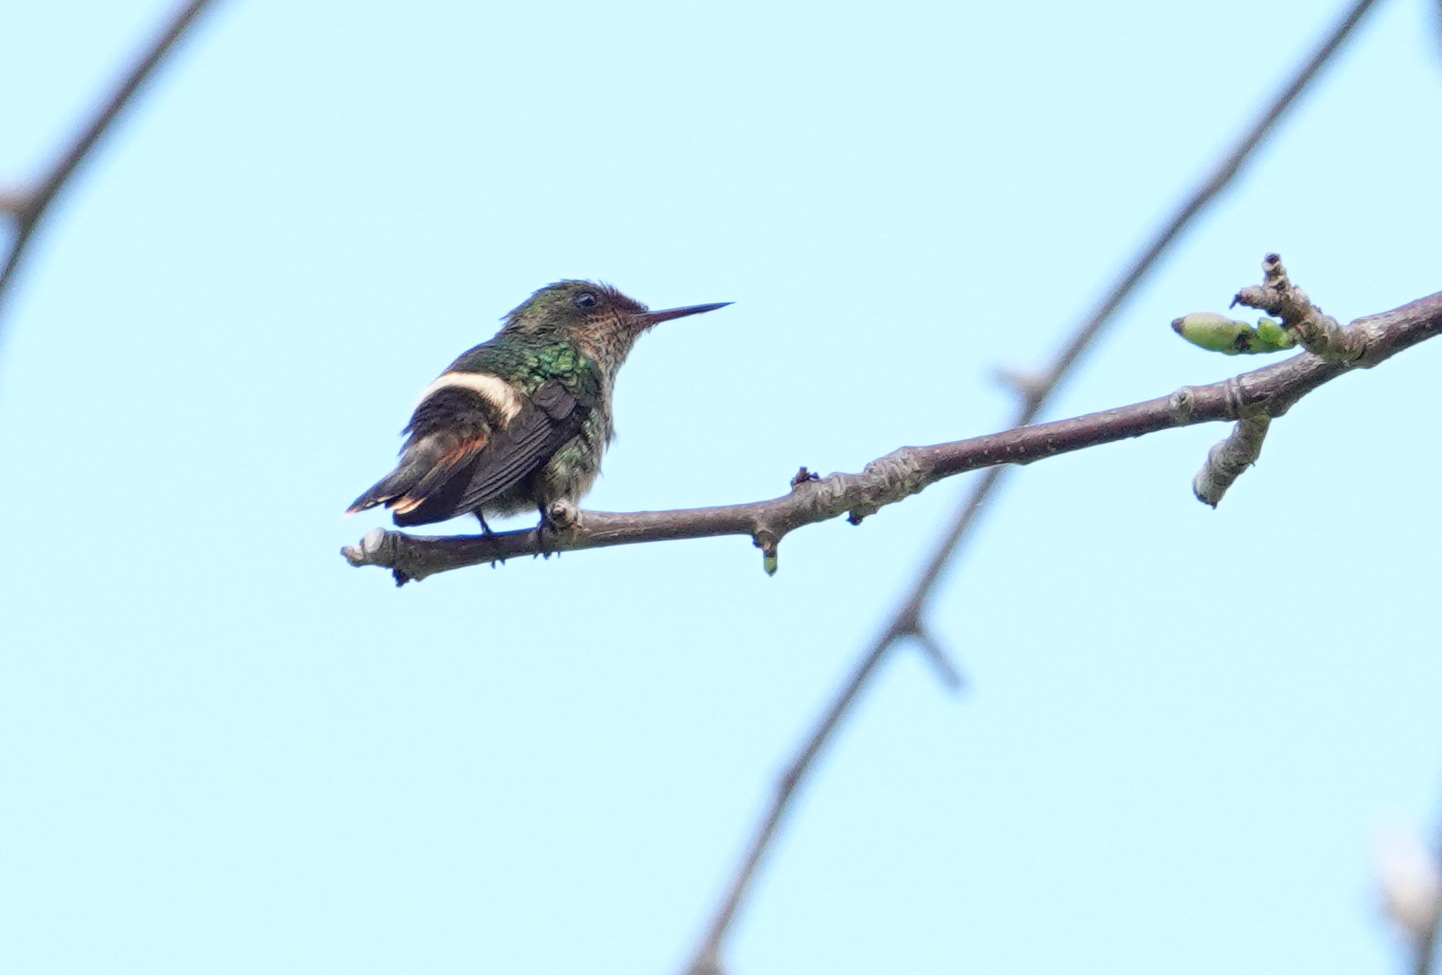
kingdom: Animalia
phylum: Chordata
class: Aves
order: Apodiformes
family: Trochilidae
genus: Lophornis
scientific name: Lophornis ornatus
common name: Tufted coquette
